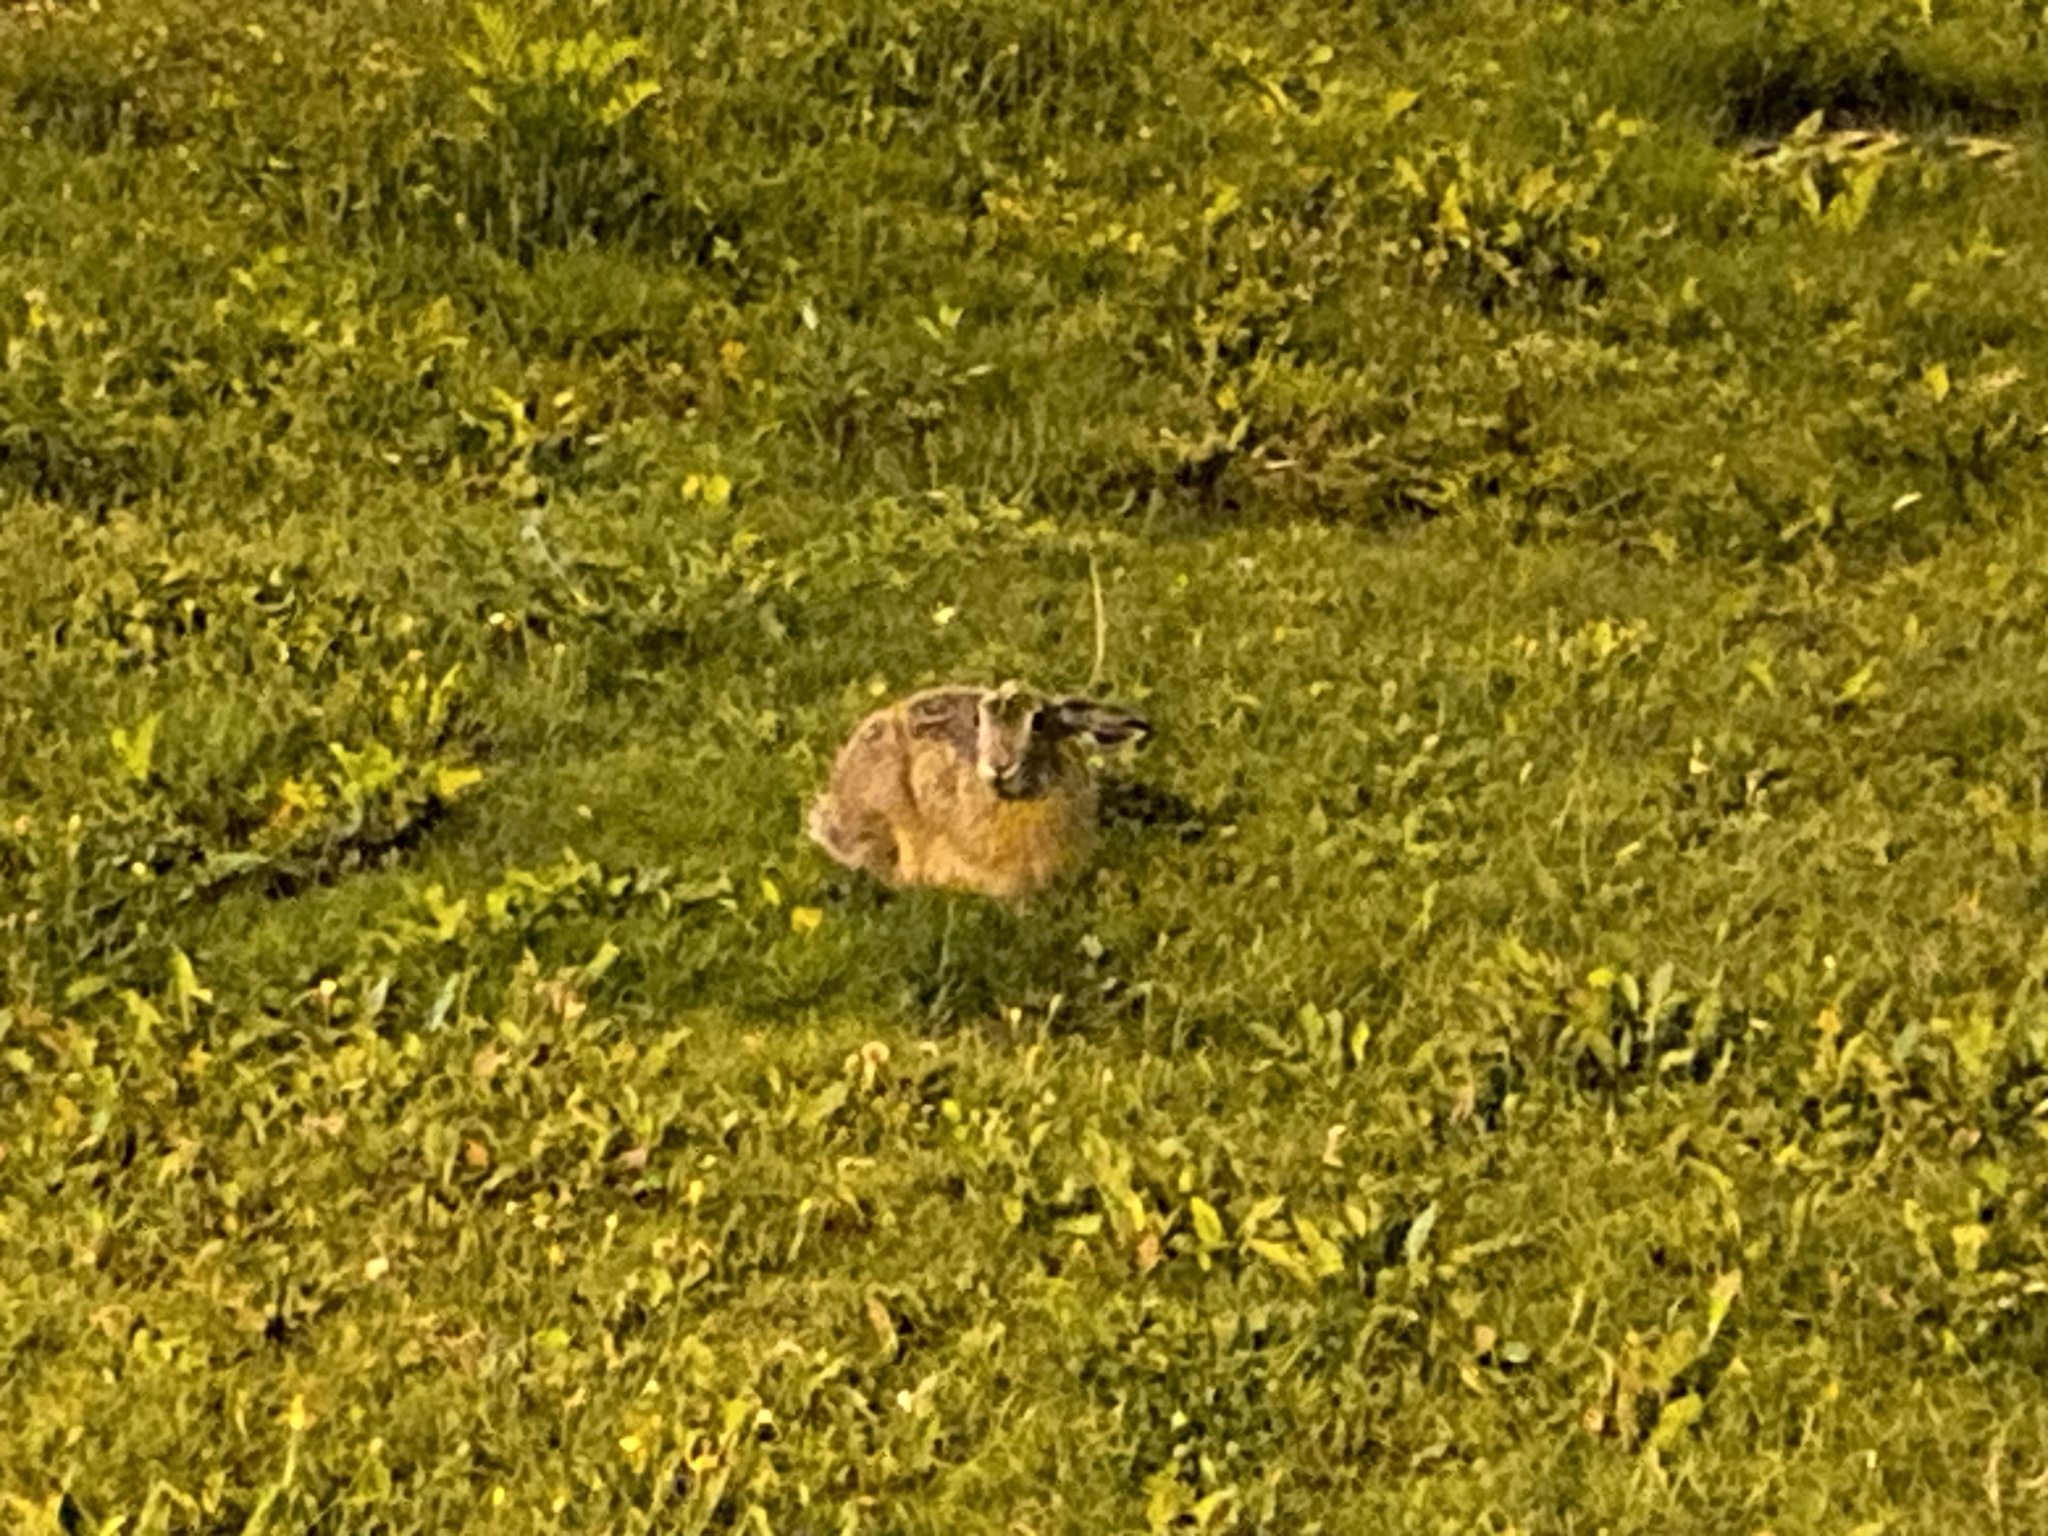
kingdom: Animalia
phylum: Chordata
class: Mammalia
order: Lagomorpha
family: Leporidae
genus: Lepus
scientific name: Lepus europaeus
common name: European hare
